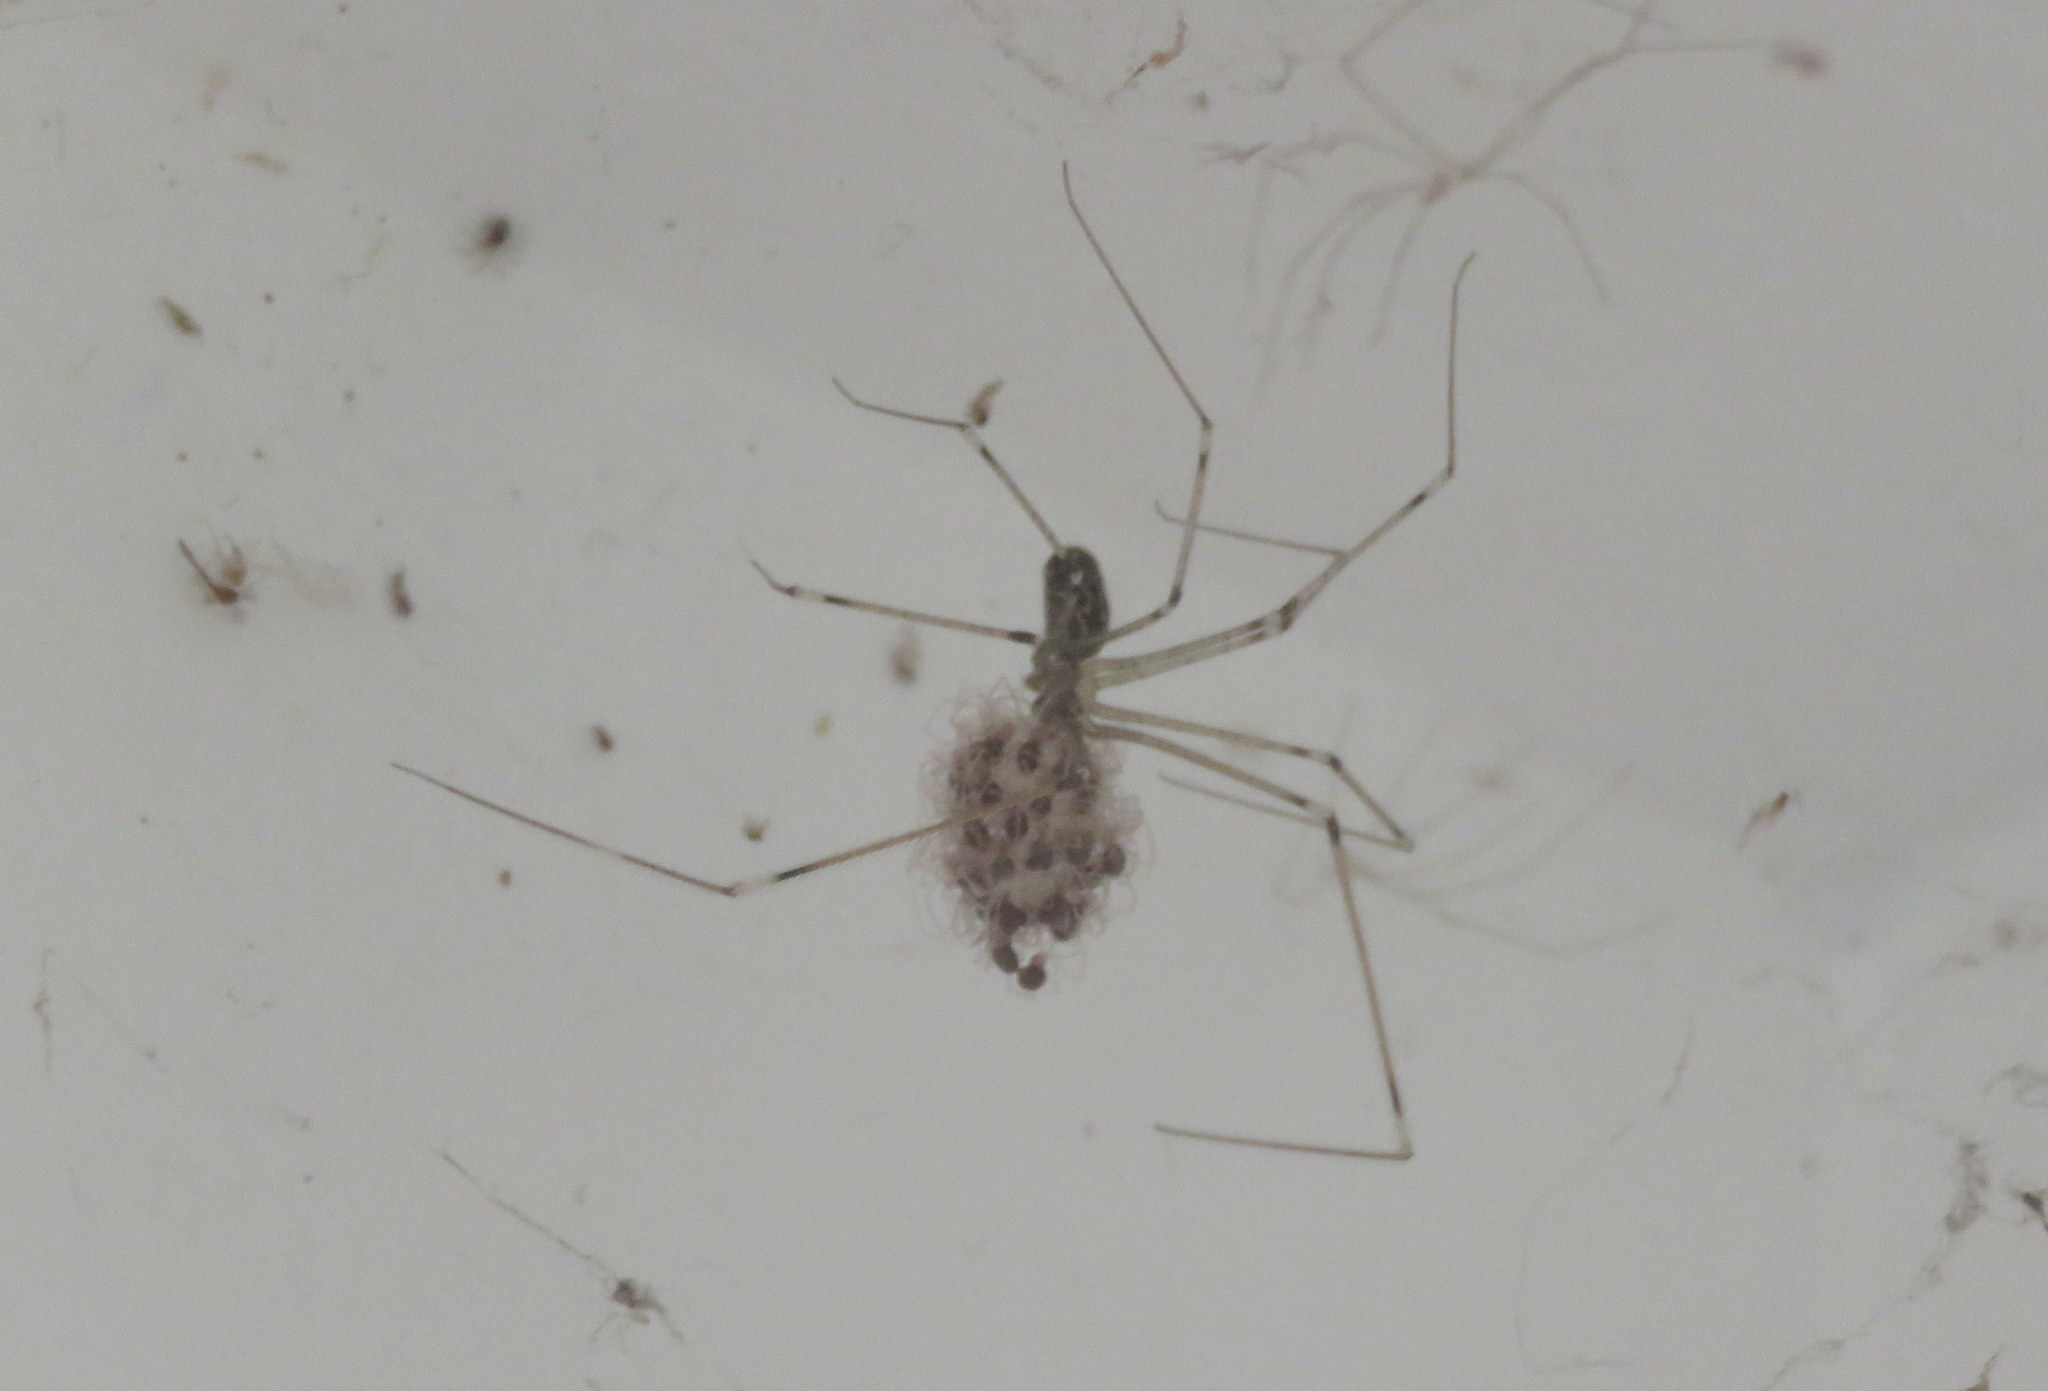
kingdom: Animalia
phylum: Arthropoda
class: Arachnida
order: Araneae
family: Pholcidae
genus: Holocnemus
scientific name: Holocnemus pluchei
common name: Marbled cellar spider
